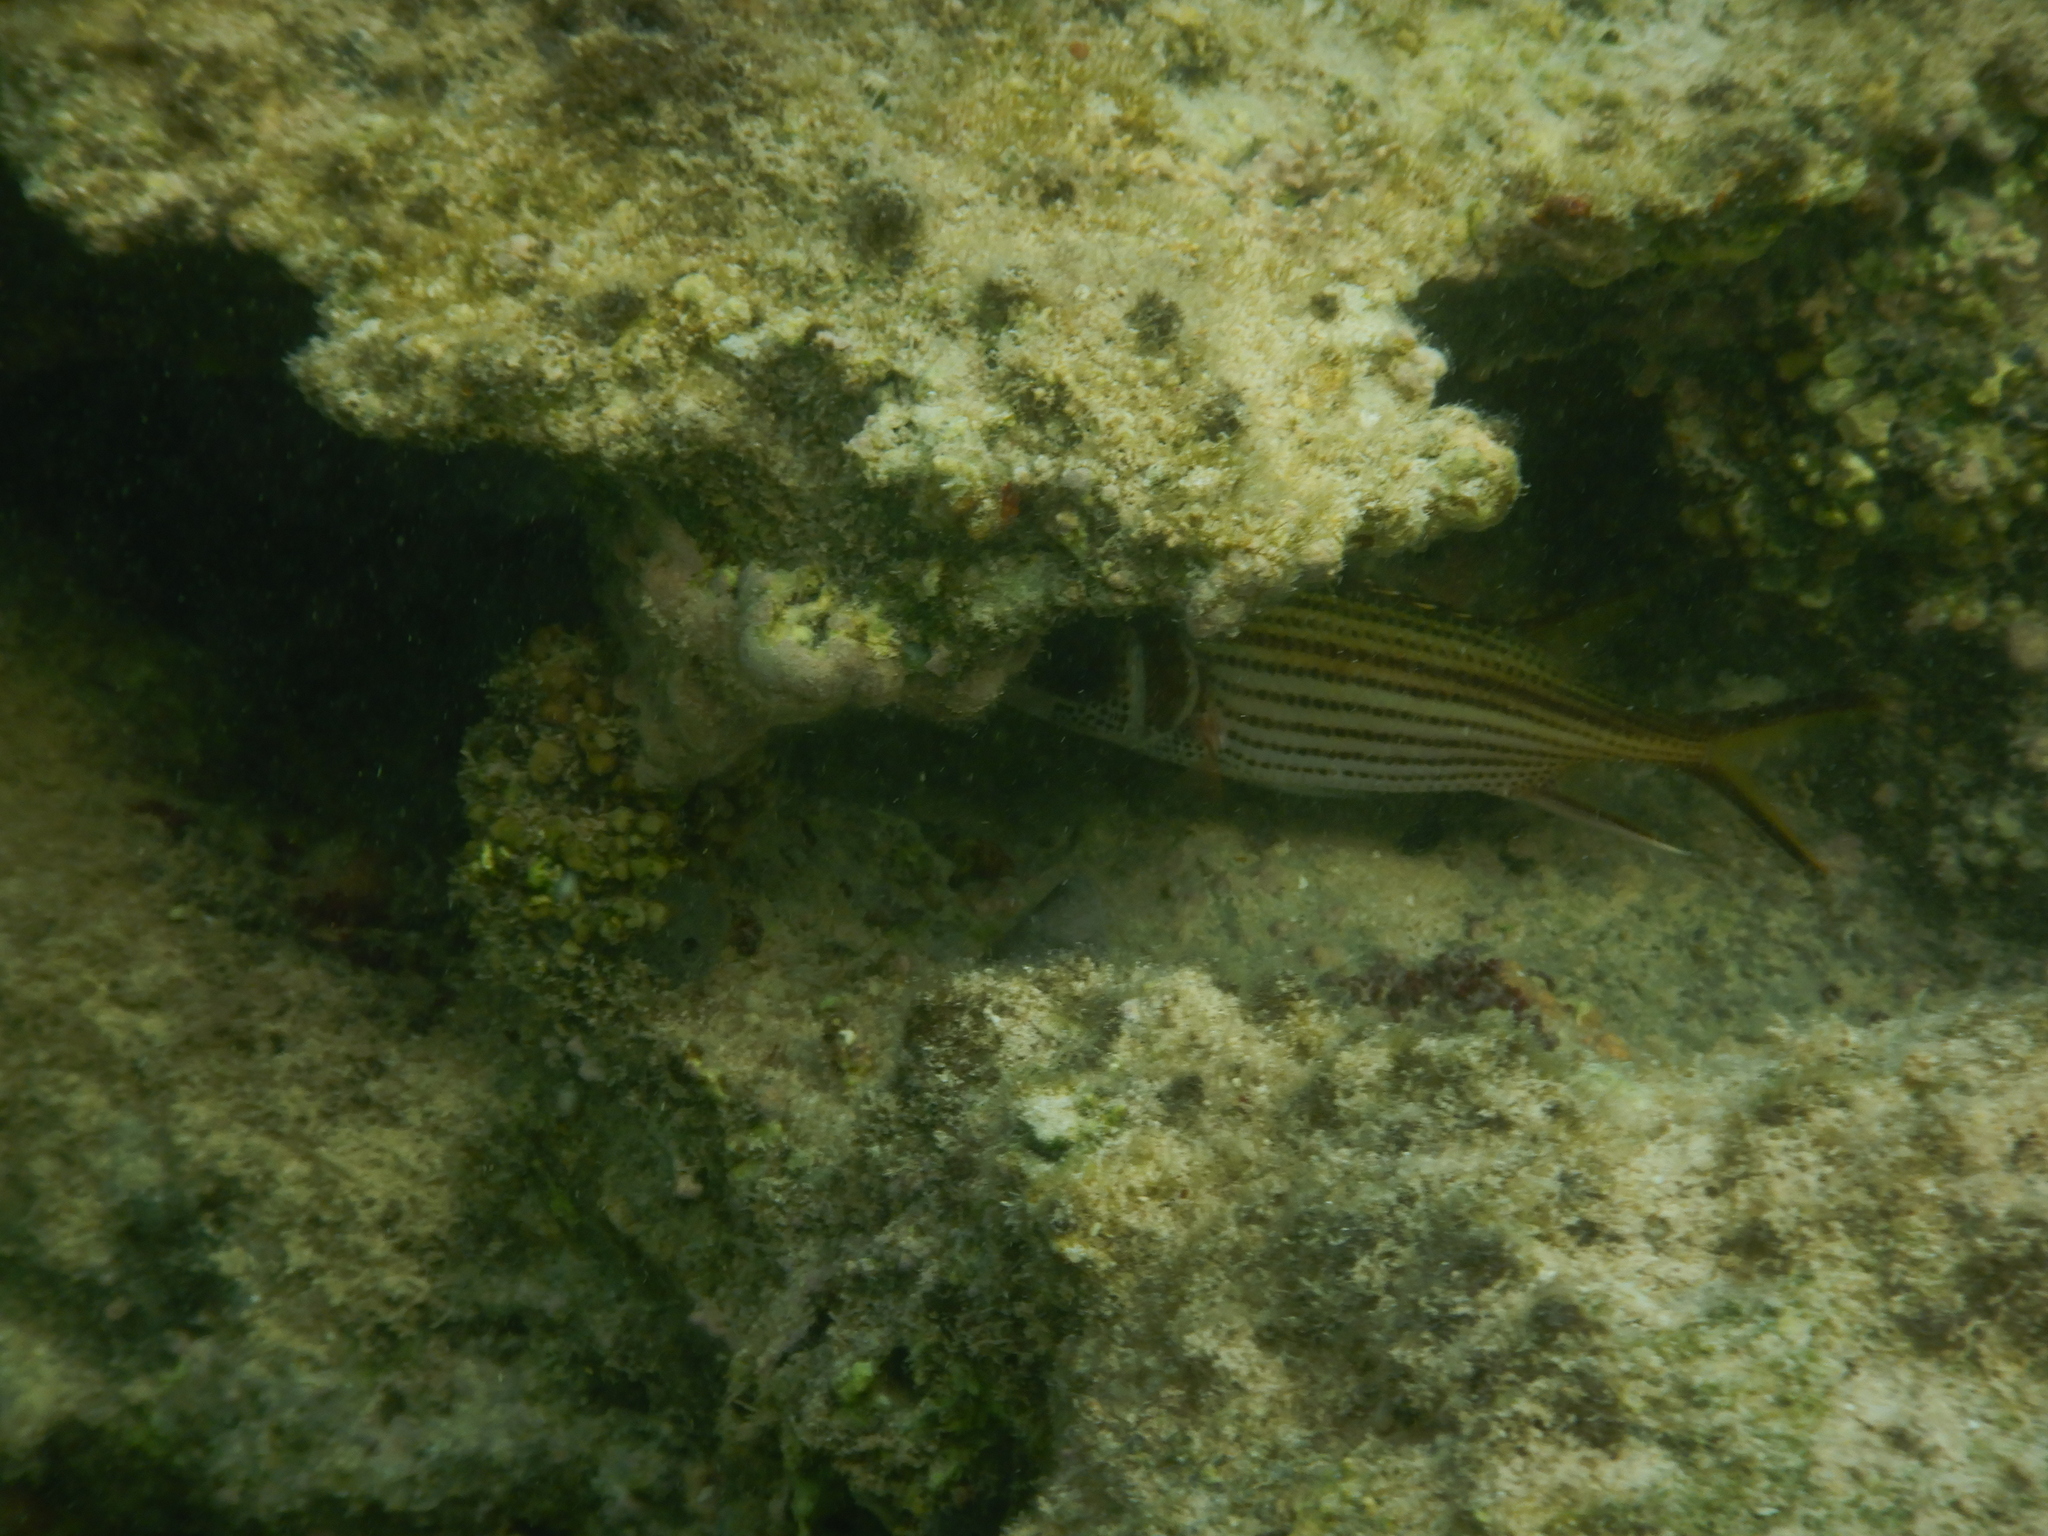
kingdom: Animalia
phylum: Chordata
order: Beryciformes
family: Holocentridae
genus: Neoniphon
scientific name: Neoniphon sammara
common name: Sammara squirrelfish
